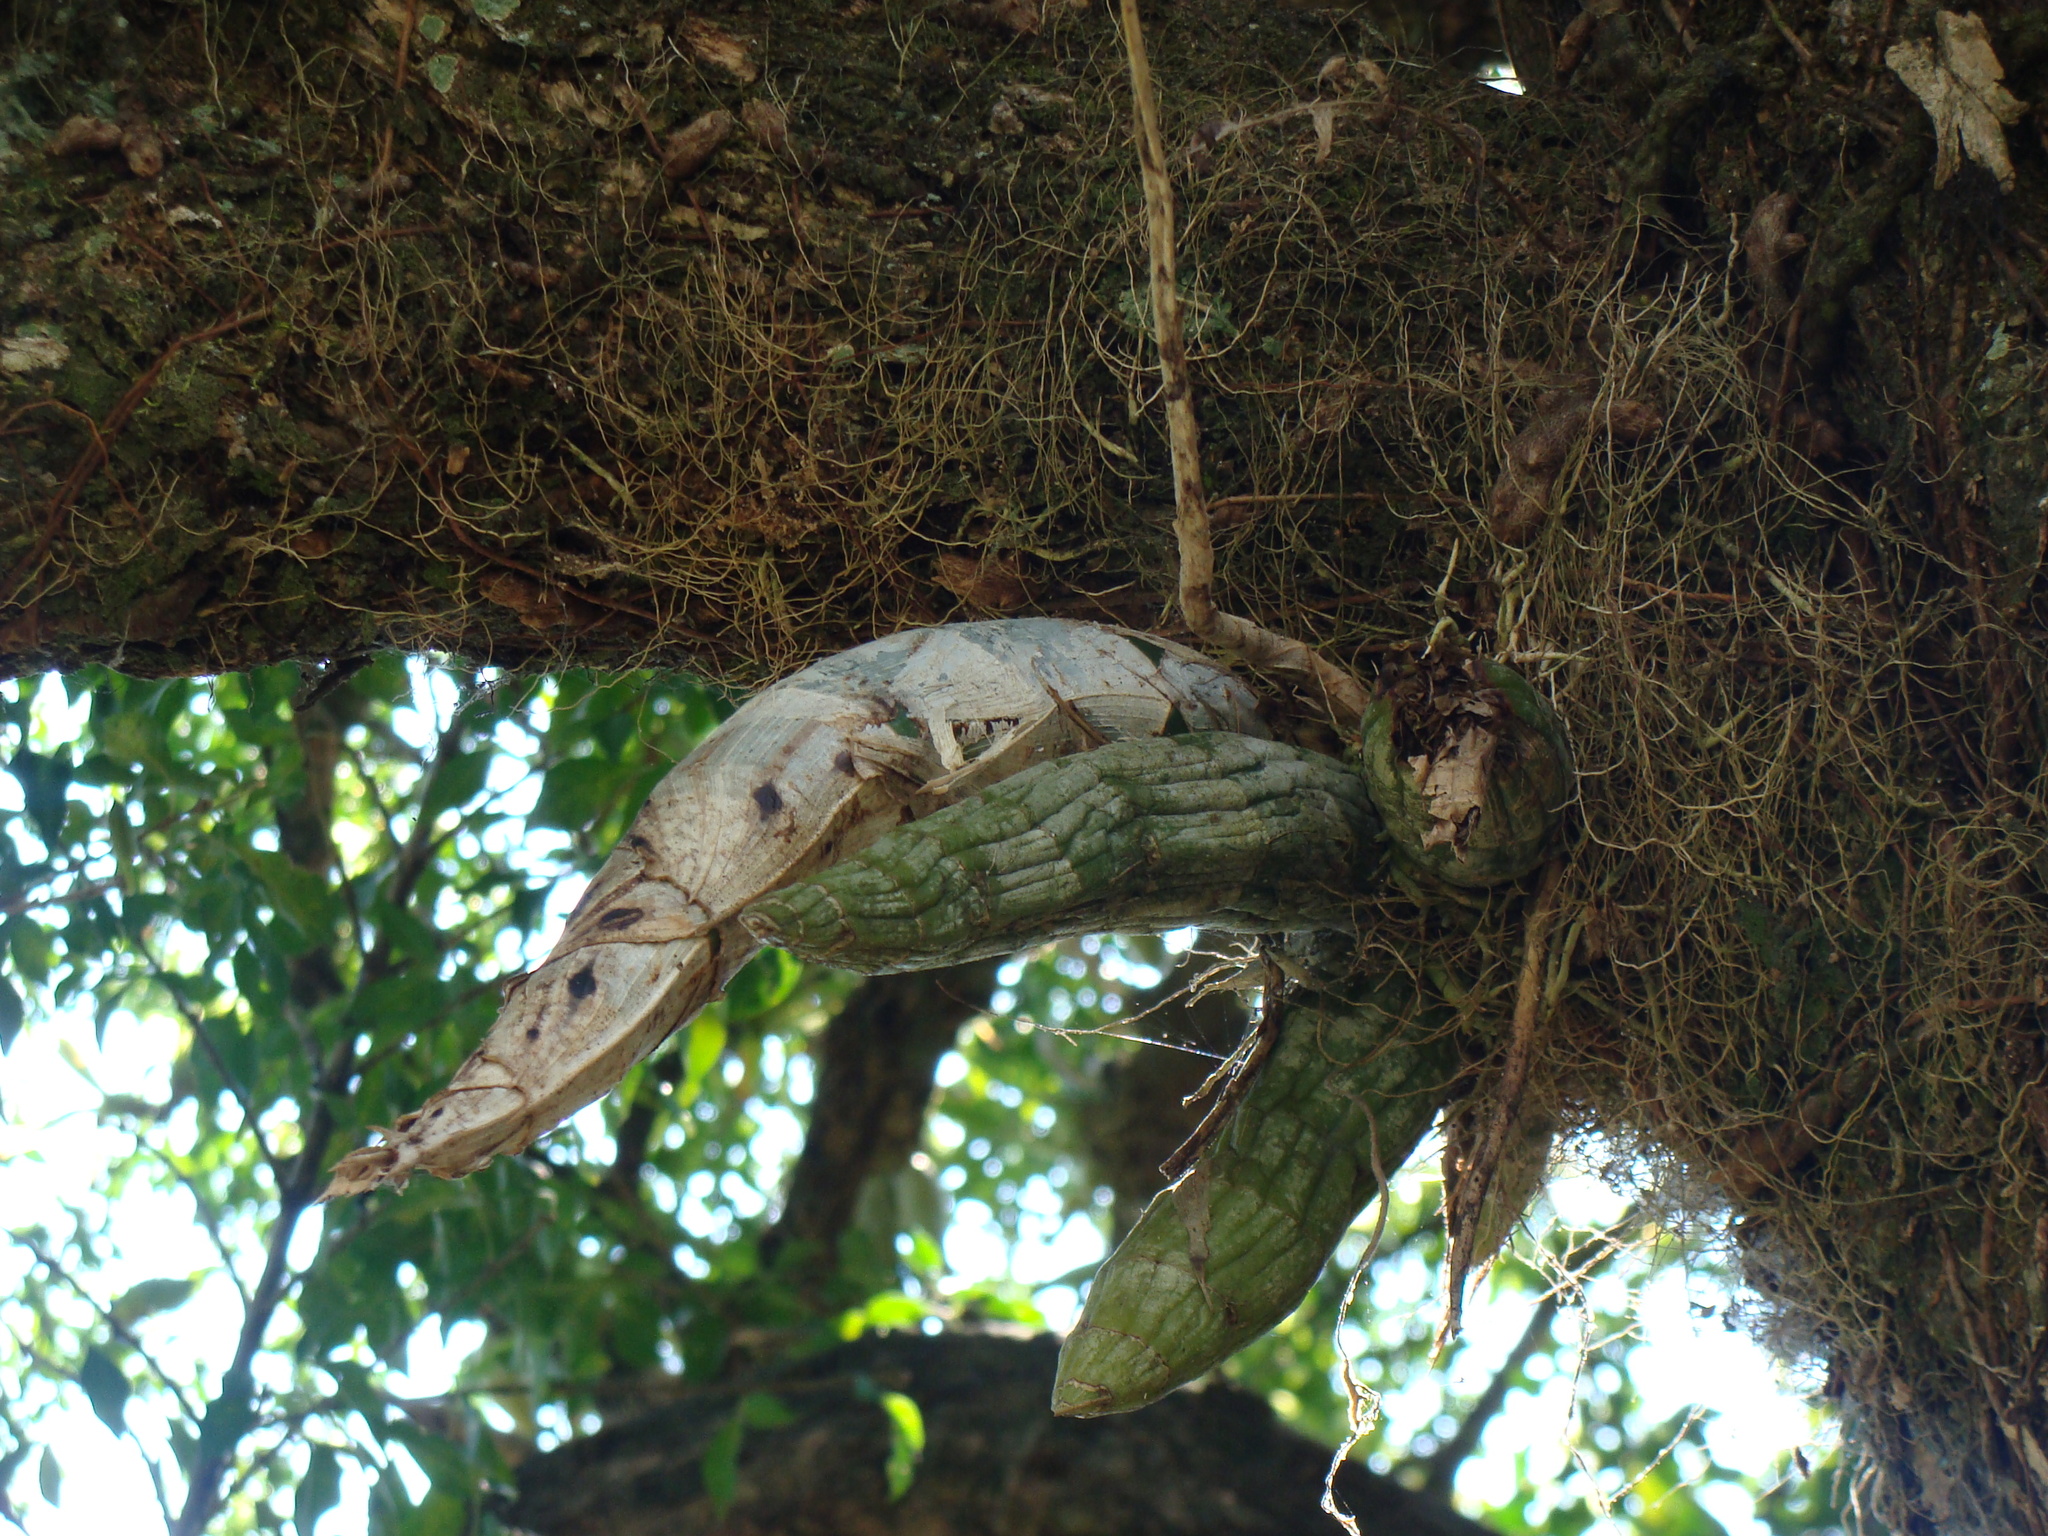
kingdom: Plantae
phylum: Tracheophyta
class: Liliopsida
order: Asparagales
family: Orchidaceae
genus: Catasetum
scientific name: Catasetum integerrimum
